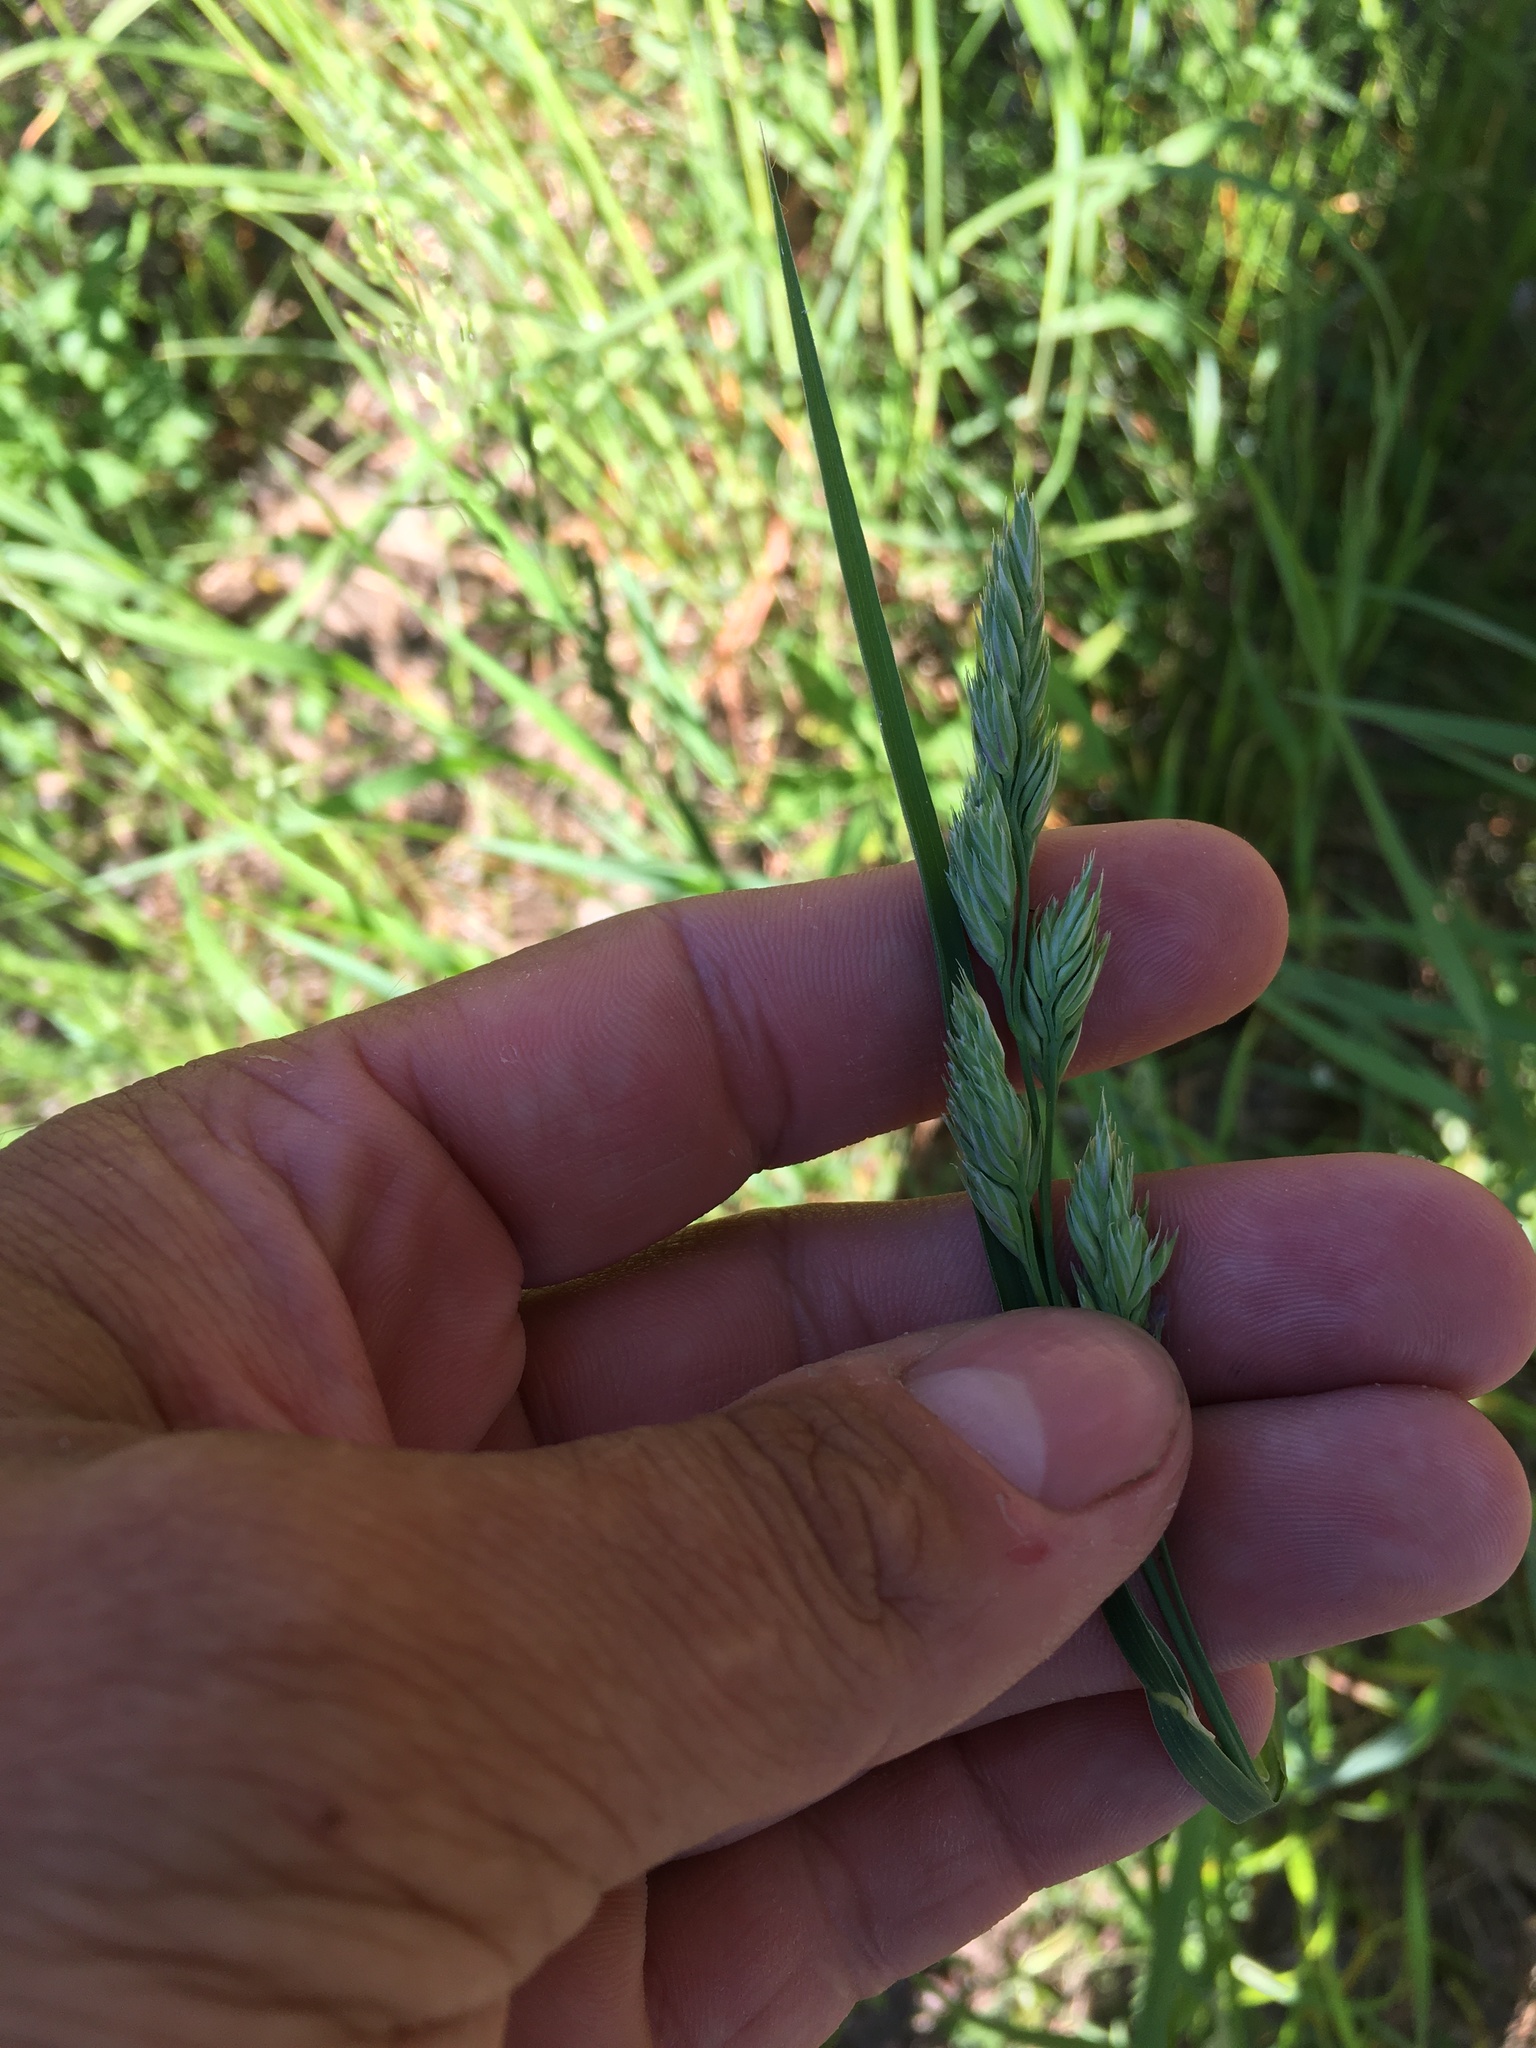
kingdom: Plantae
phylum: Tracheophyta
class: Liliopsida
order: Poales
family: Poaceae
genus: Dactylis
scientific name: Dactylis glomerata
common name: Orchardgrass
